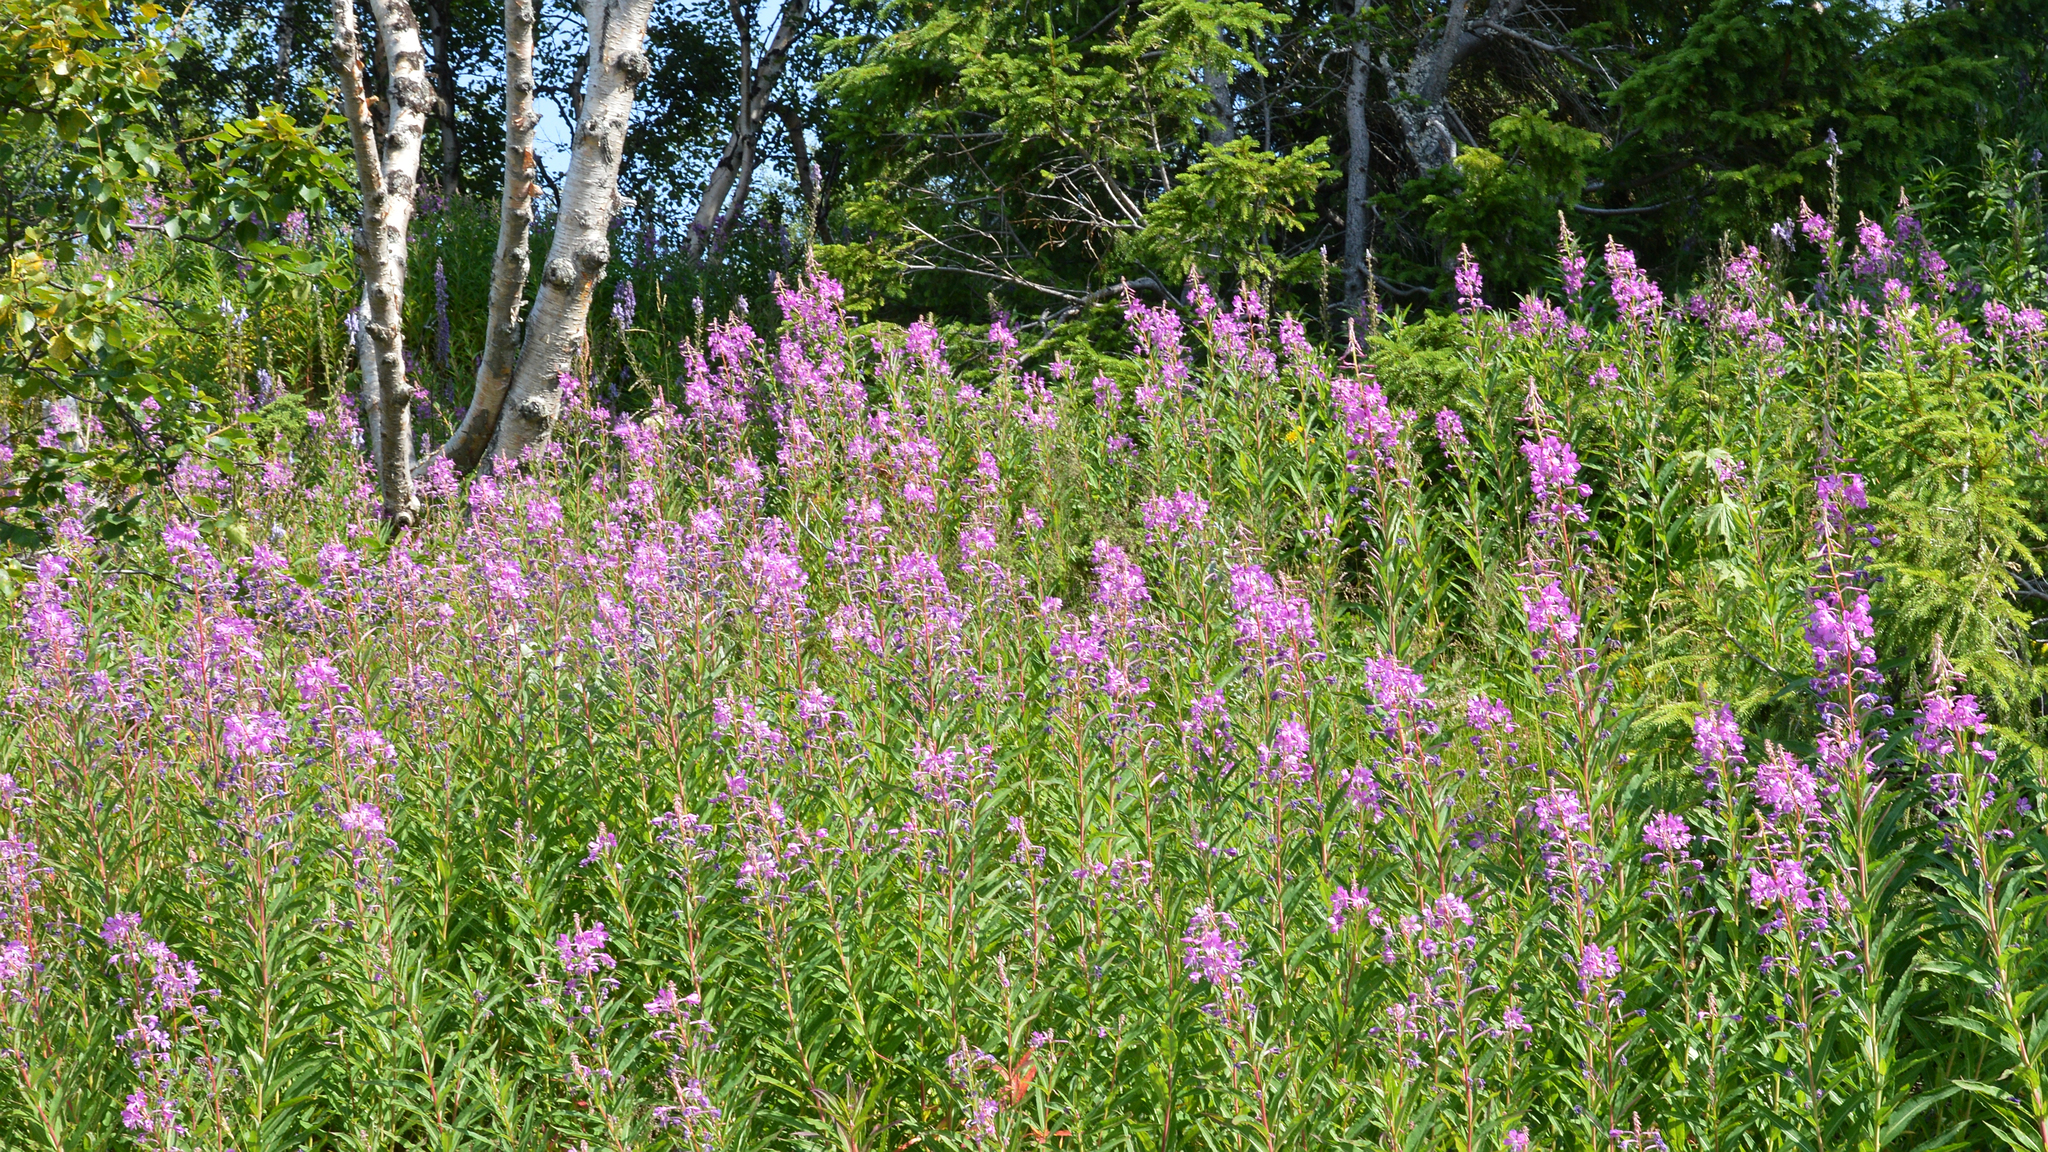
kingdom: Plantae
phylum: Tracheophyta
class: Magnoliopsida
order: Myrtales
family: Onagraceae
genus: Chamaenerion
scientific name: Chamaenerion angustifolium
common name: Fireweed
